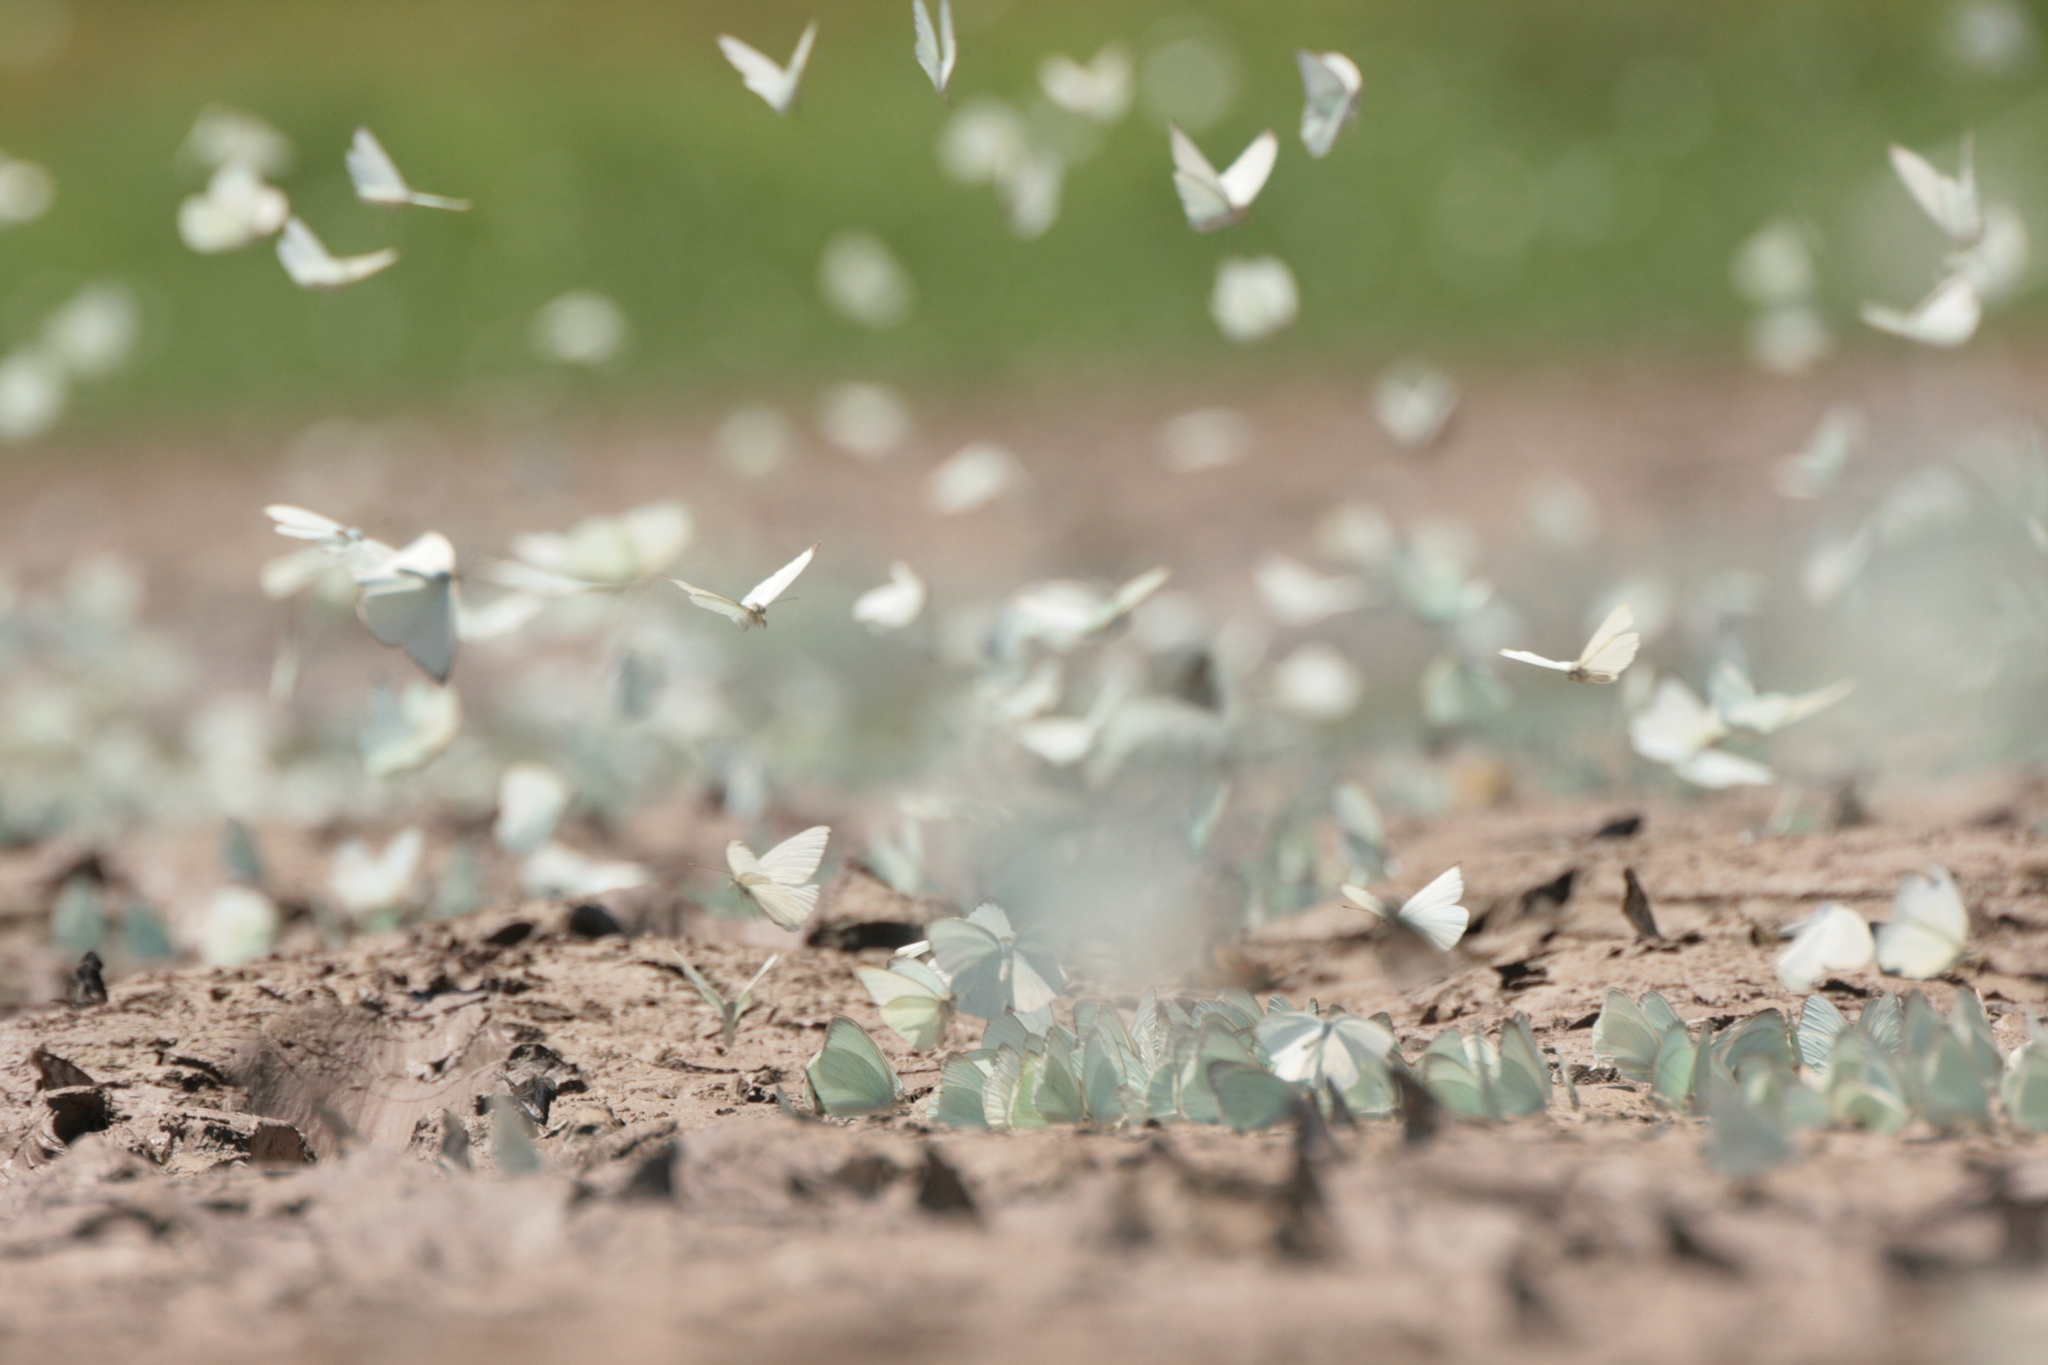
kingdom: Animalia
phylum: Arthropoda
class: Insecta
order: Lepidoptera
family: Pieridae
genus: Ascia
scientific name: Ascia monuste
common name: Great southern white
